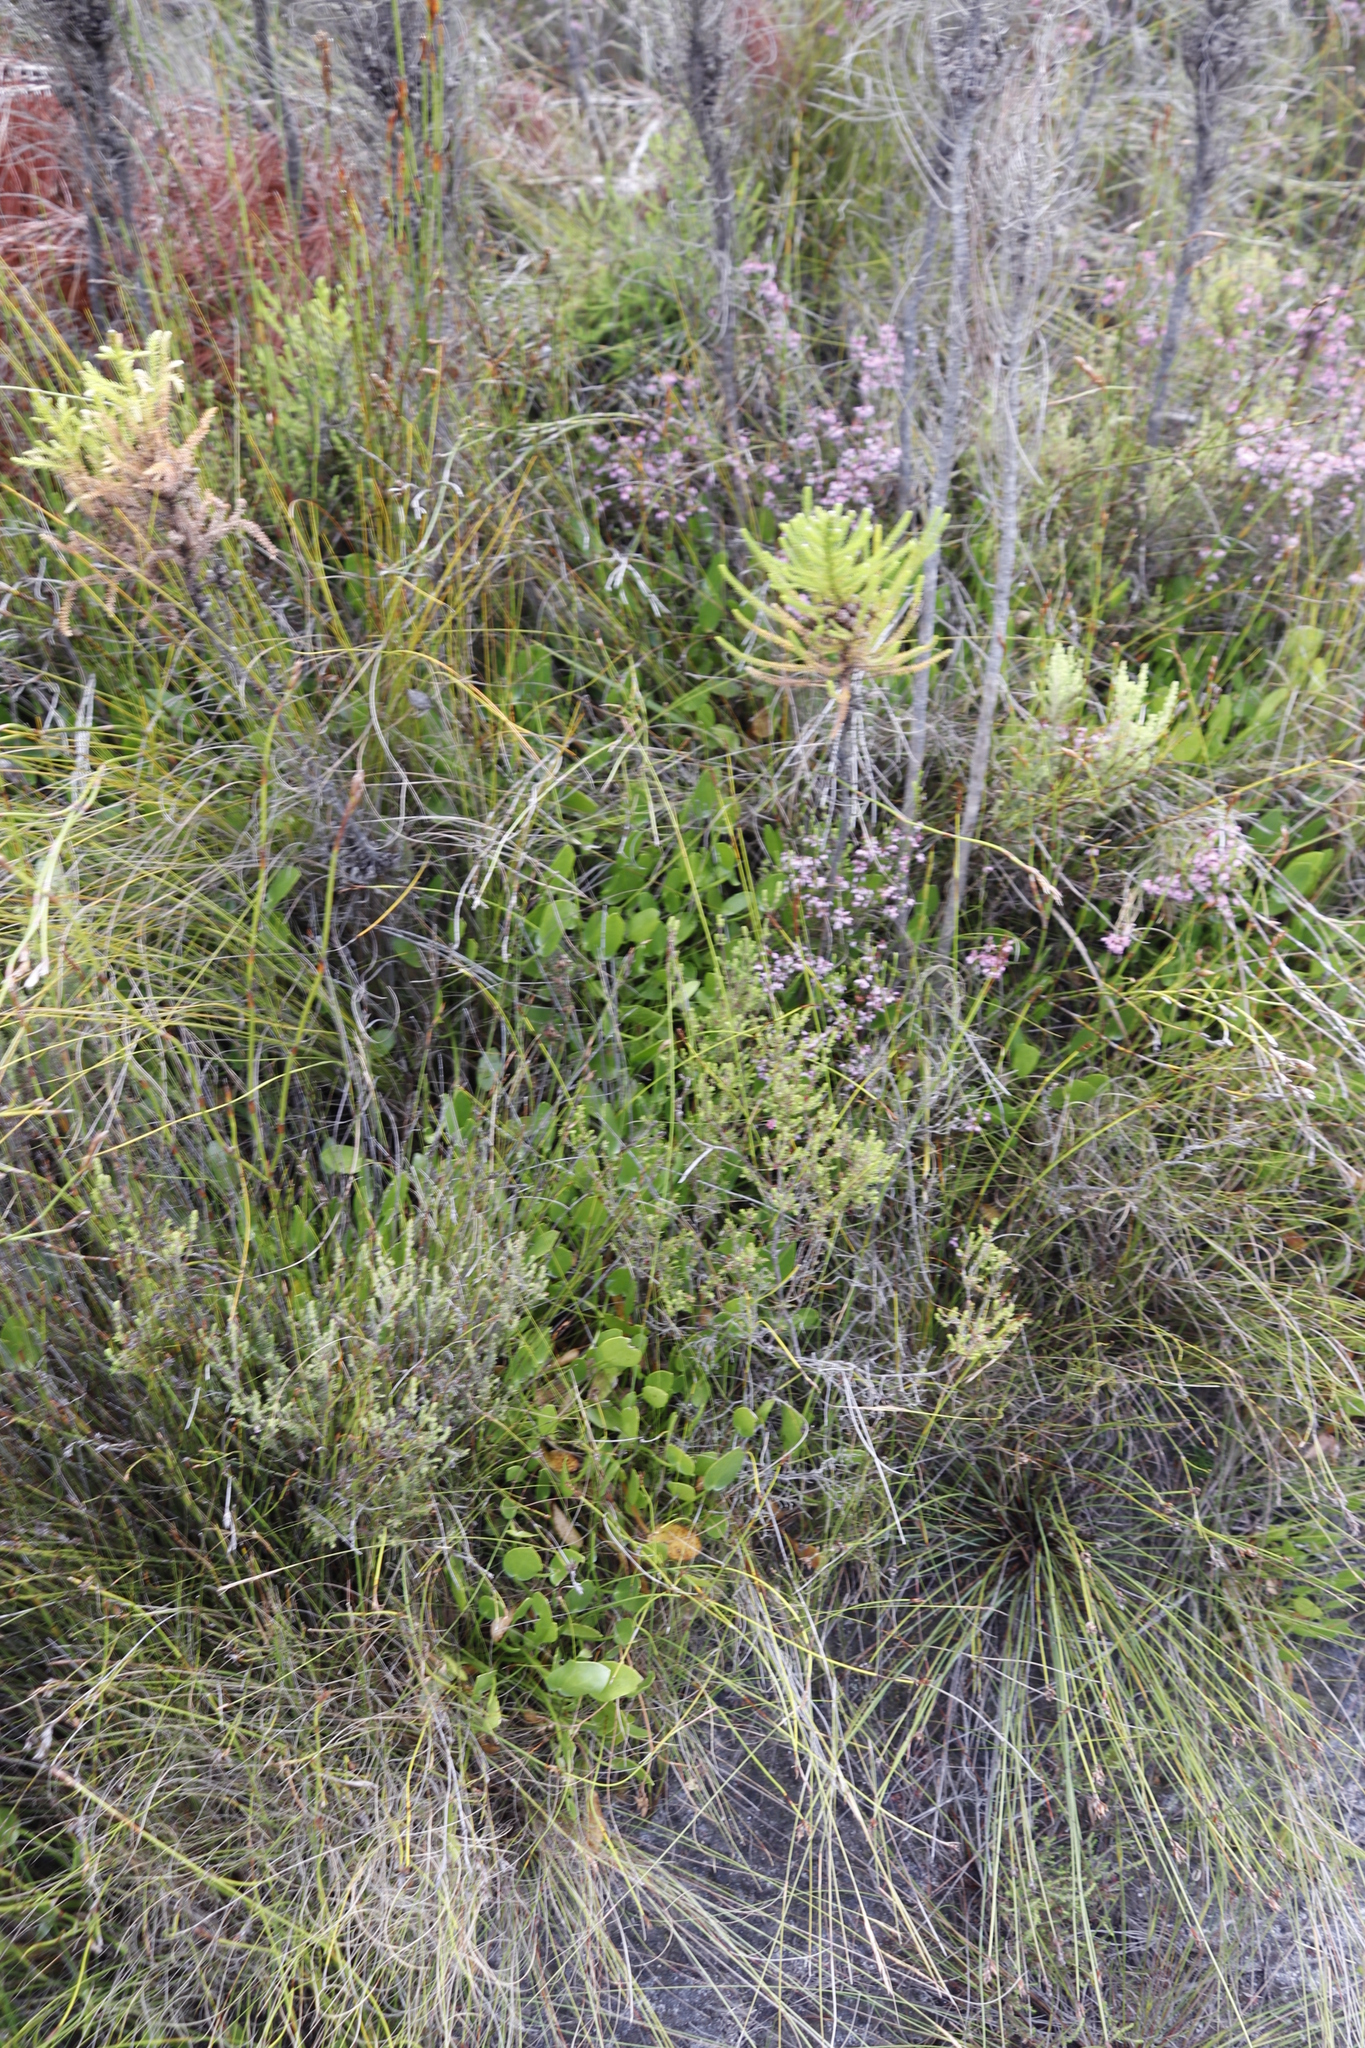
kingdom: Plantae
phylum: Tracheophyta
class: Magnoliopsida
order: Asterales
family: Menyanthaceae
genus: Villarsia
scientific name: Villarsia manningiana
